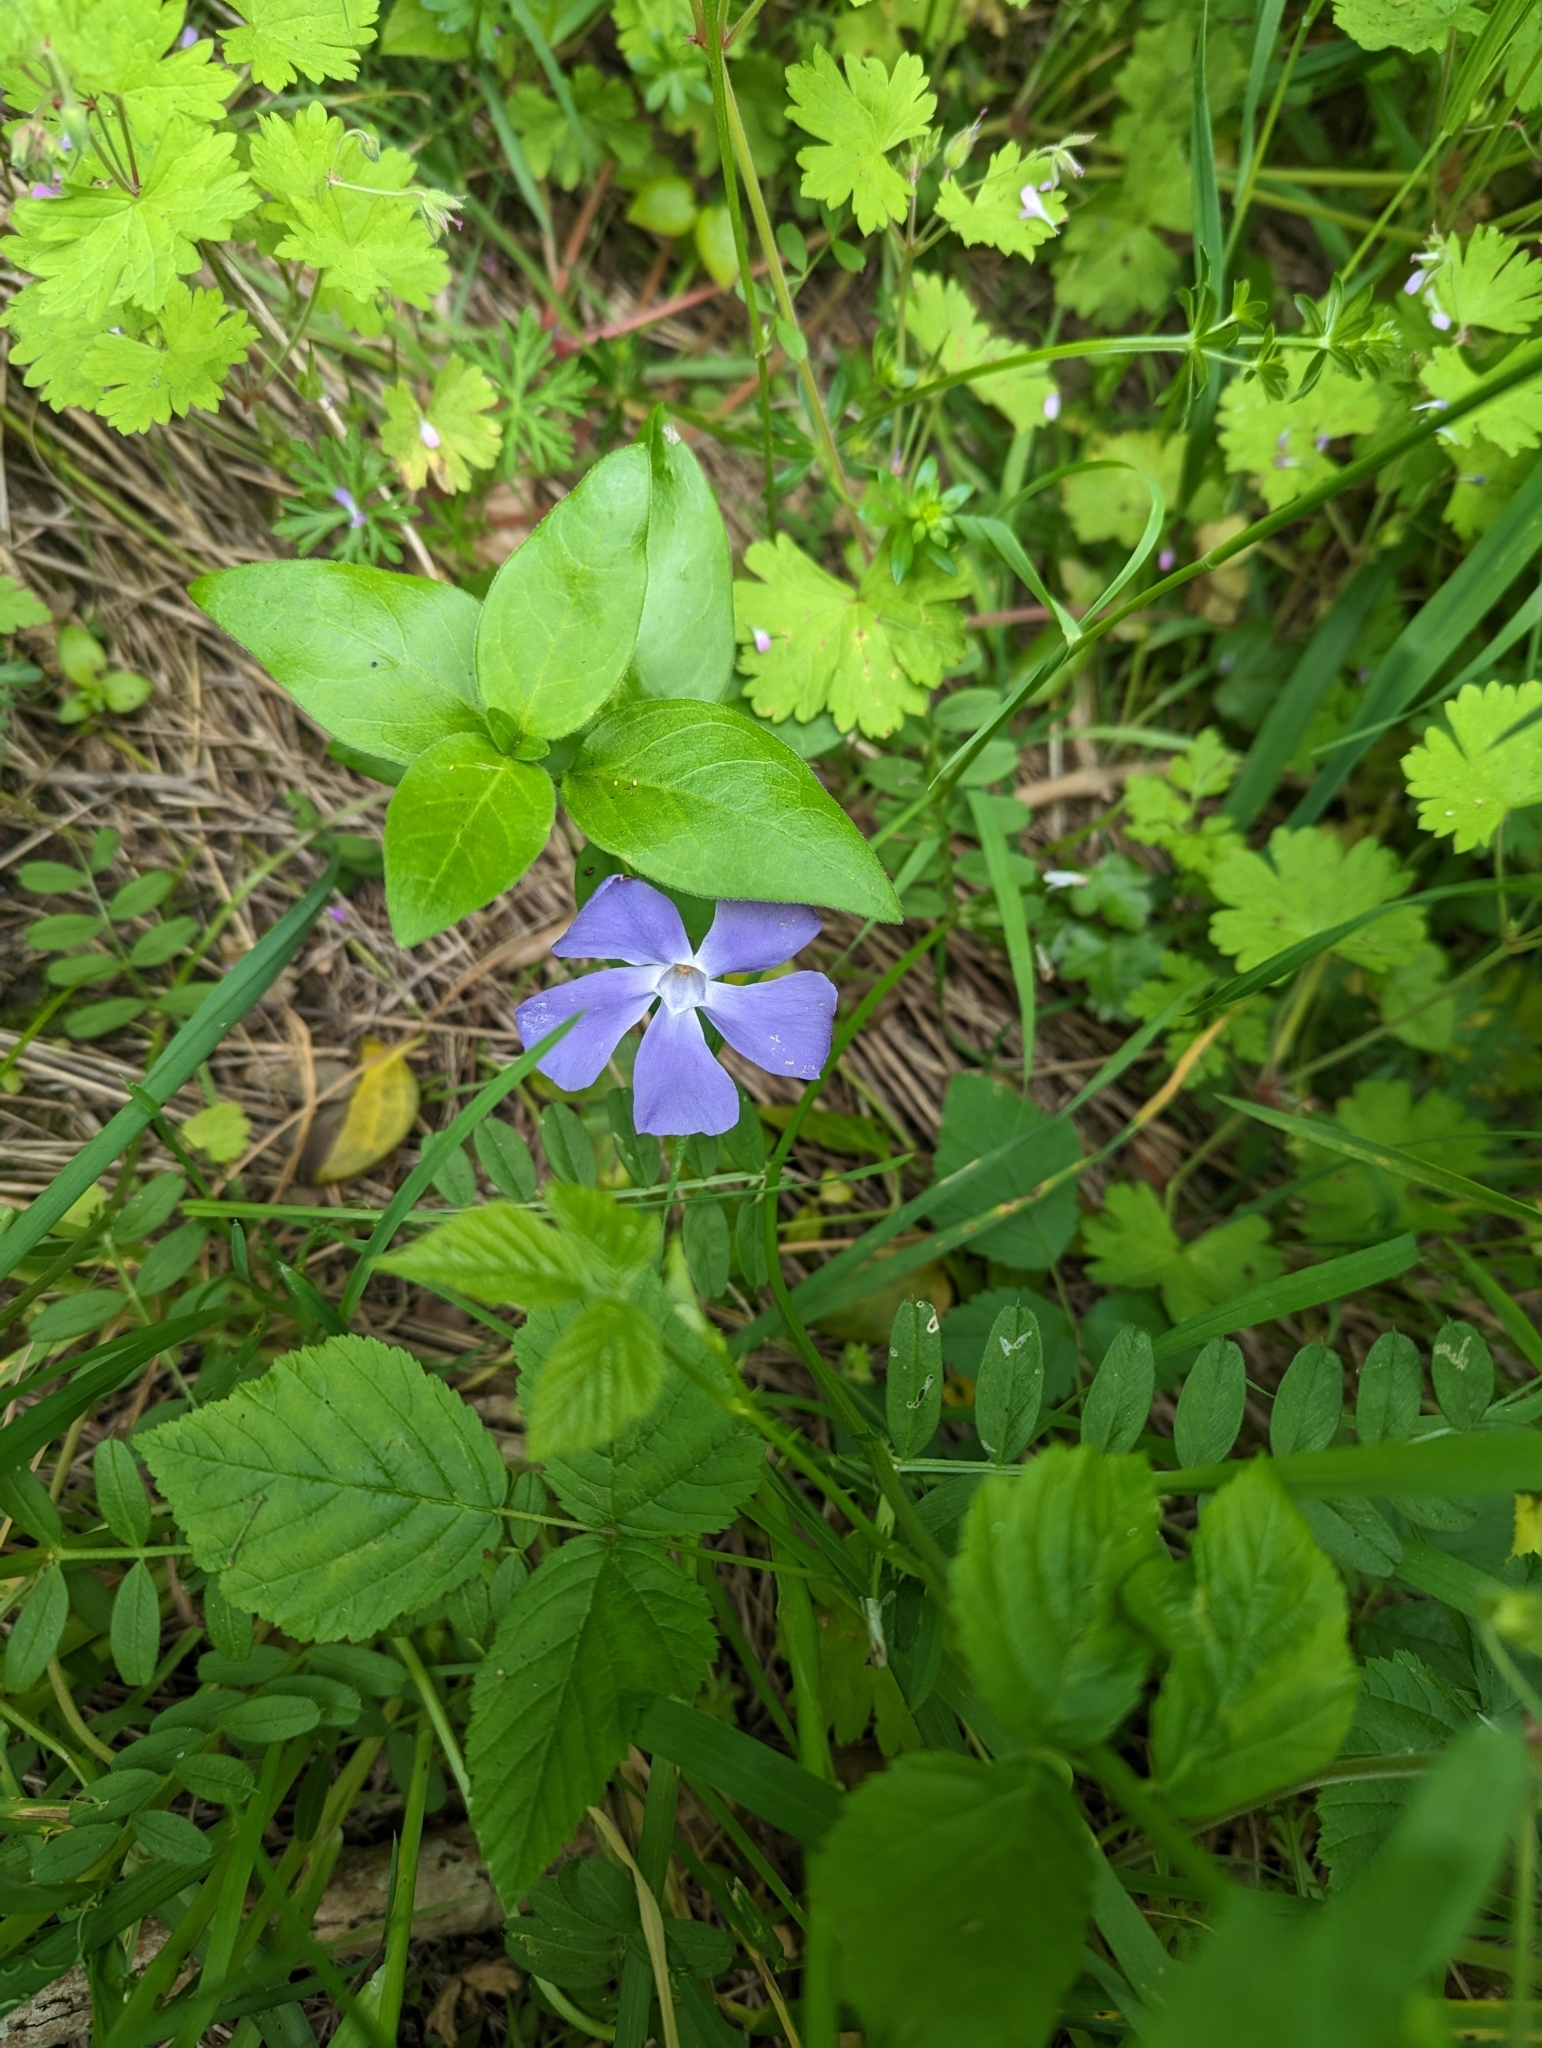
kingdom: Plantae
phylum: Tracheophyta
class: Magnoliopsida
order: Gentianales
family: Apocynaceae
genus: Vinca
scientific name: Vinca major
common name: Greater periwinkle
